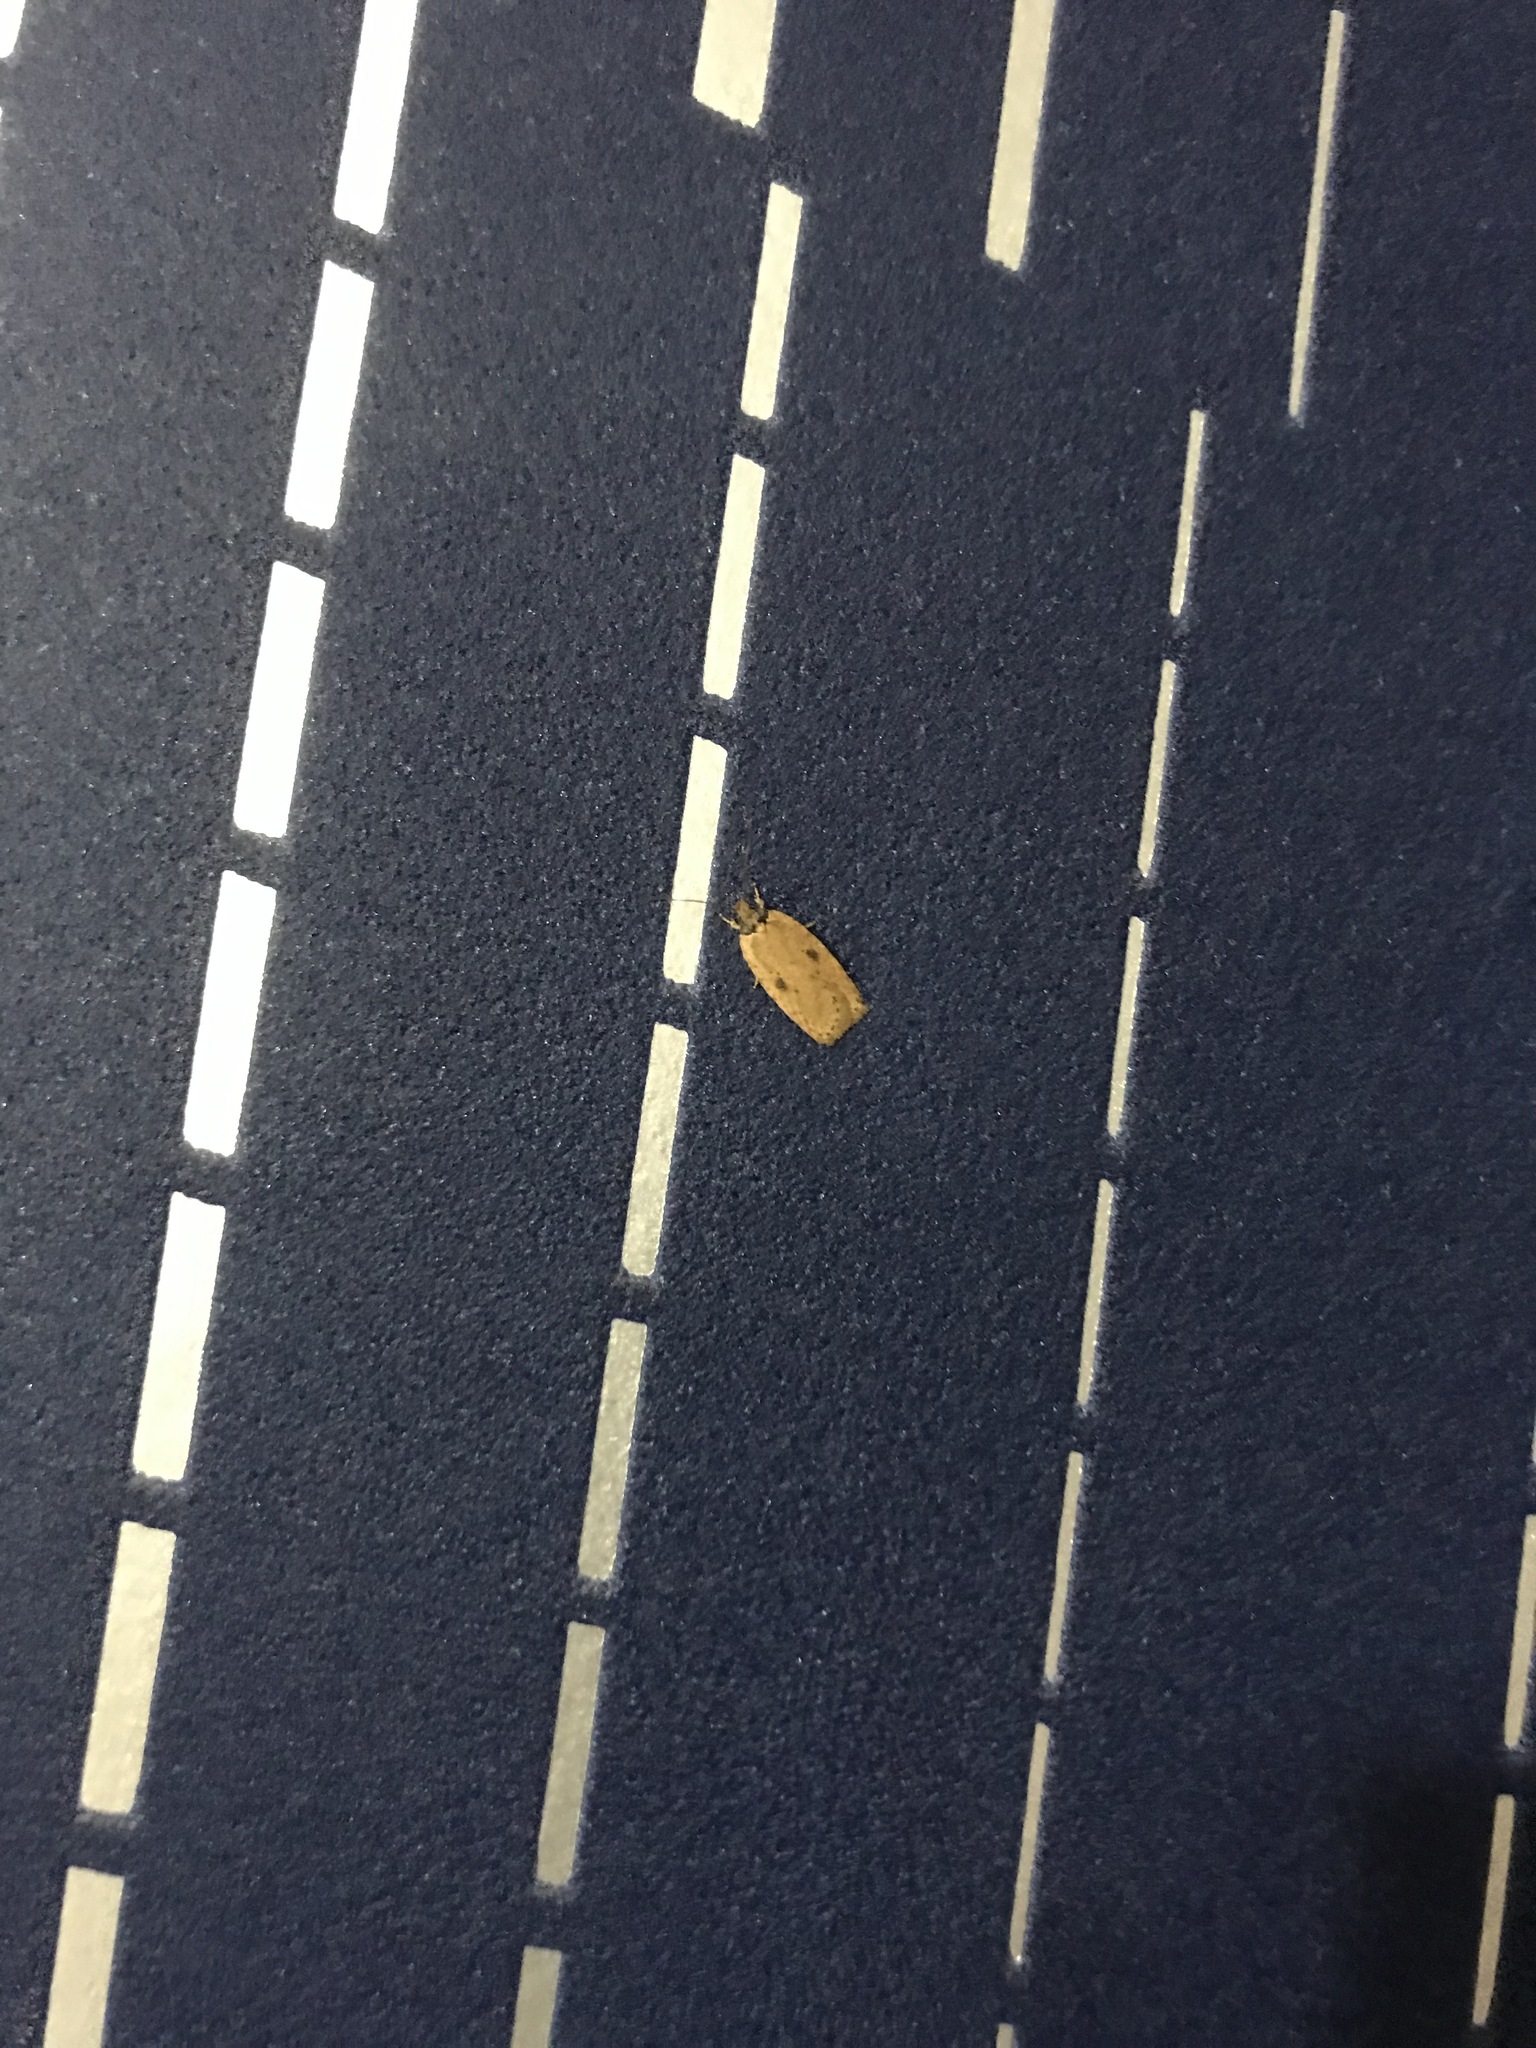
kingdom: Animalia
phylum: Arthropoda
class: Insecta
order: Lepidoptera
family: Depressariidae
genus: Agonopterix
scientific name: Agonopterix
